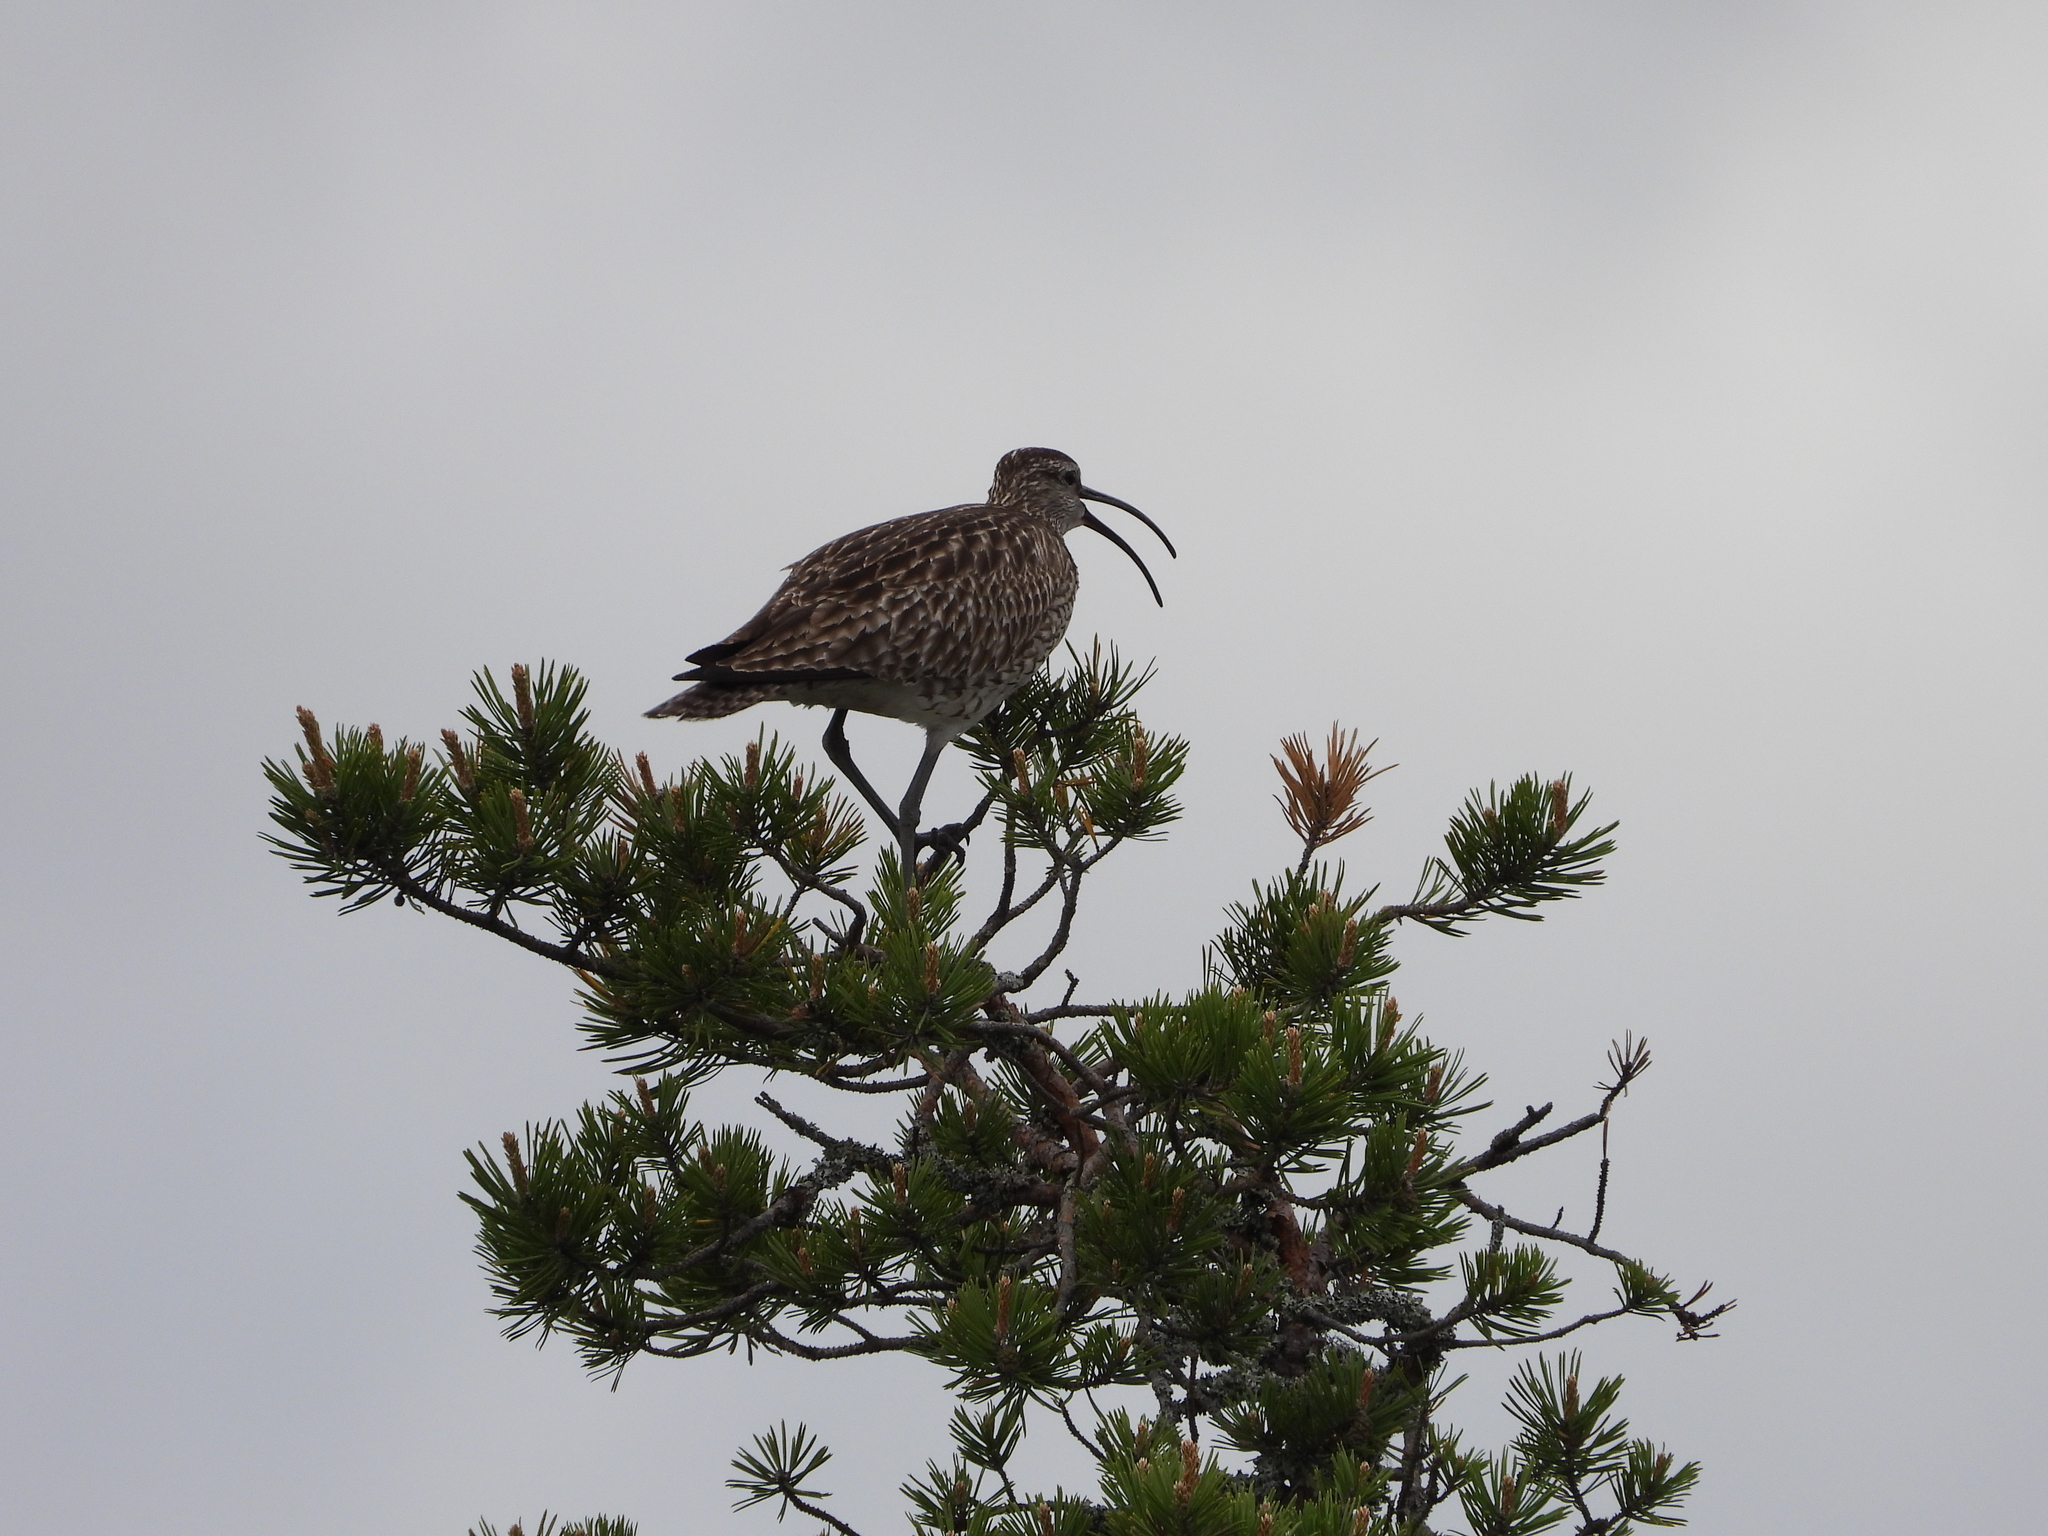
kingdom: Animalia
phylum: Chordata
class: Aves
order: Charadriiformes
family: Scolopacidae
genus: Numenius
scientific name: Numenius phaeopus
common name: Whimbrel
